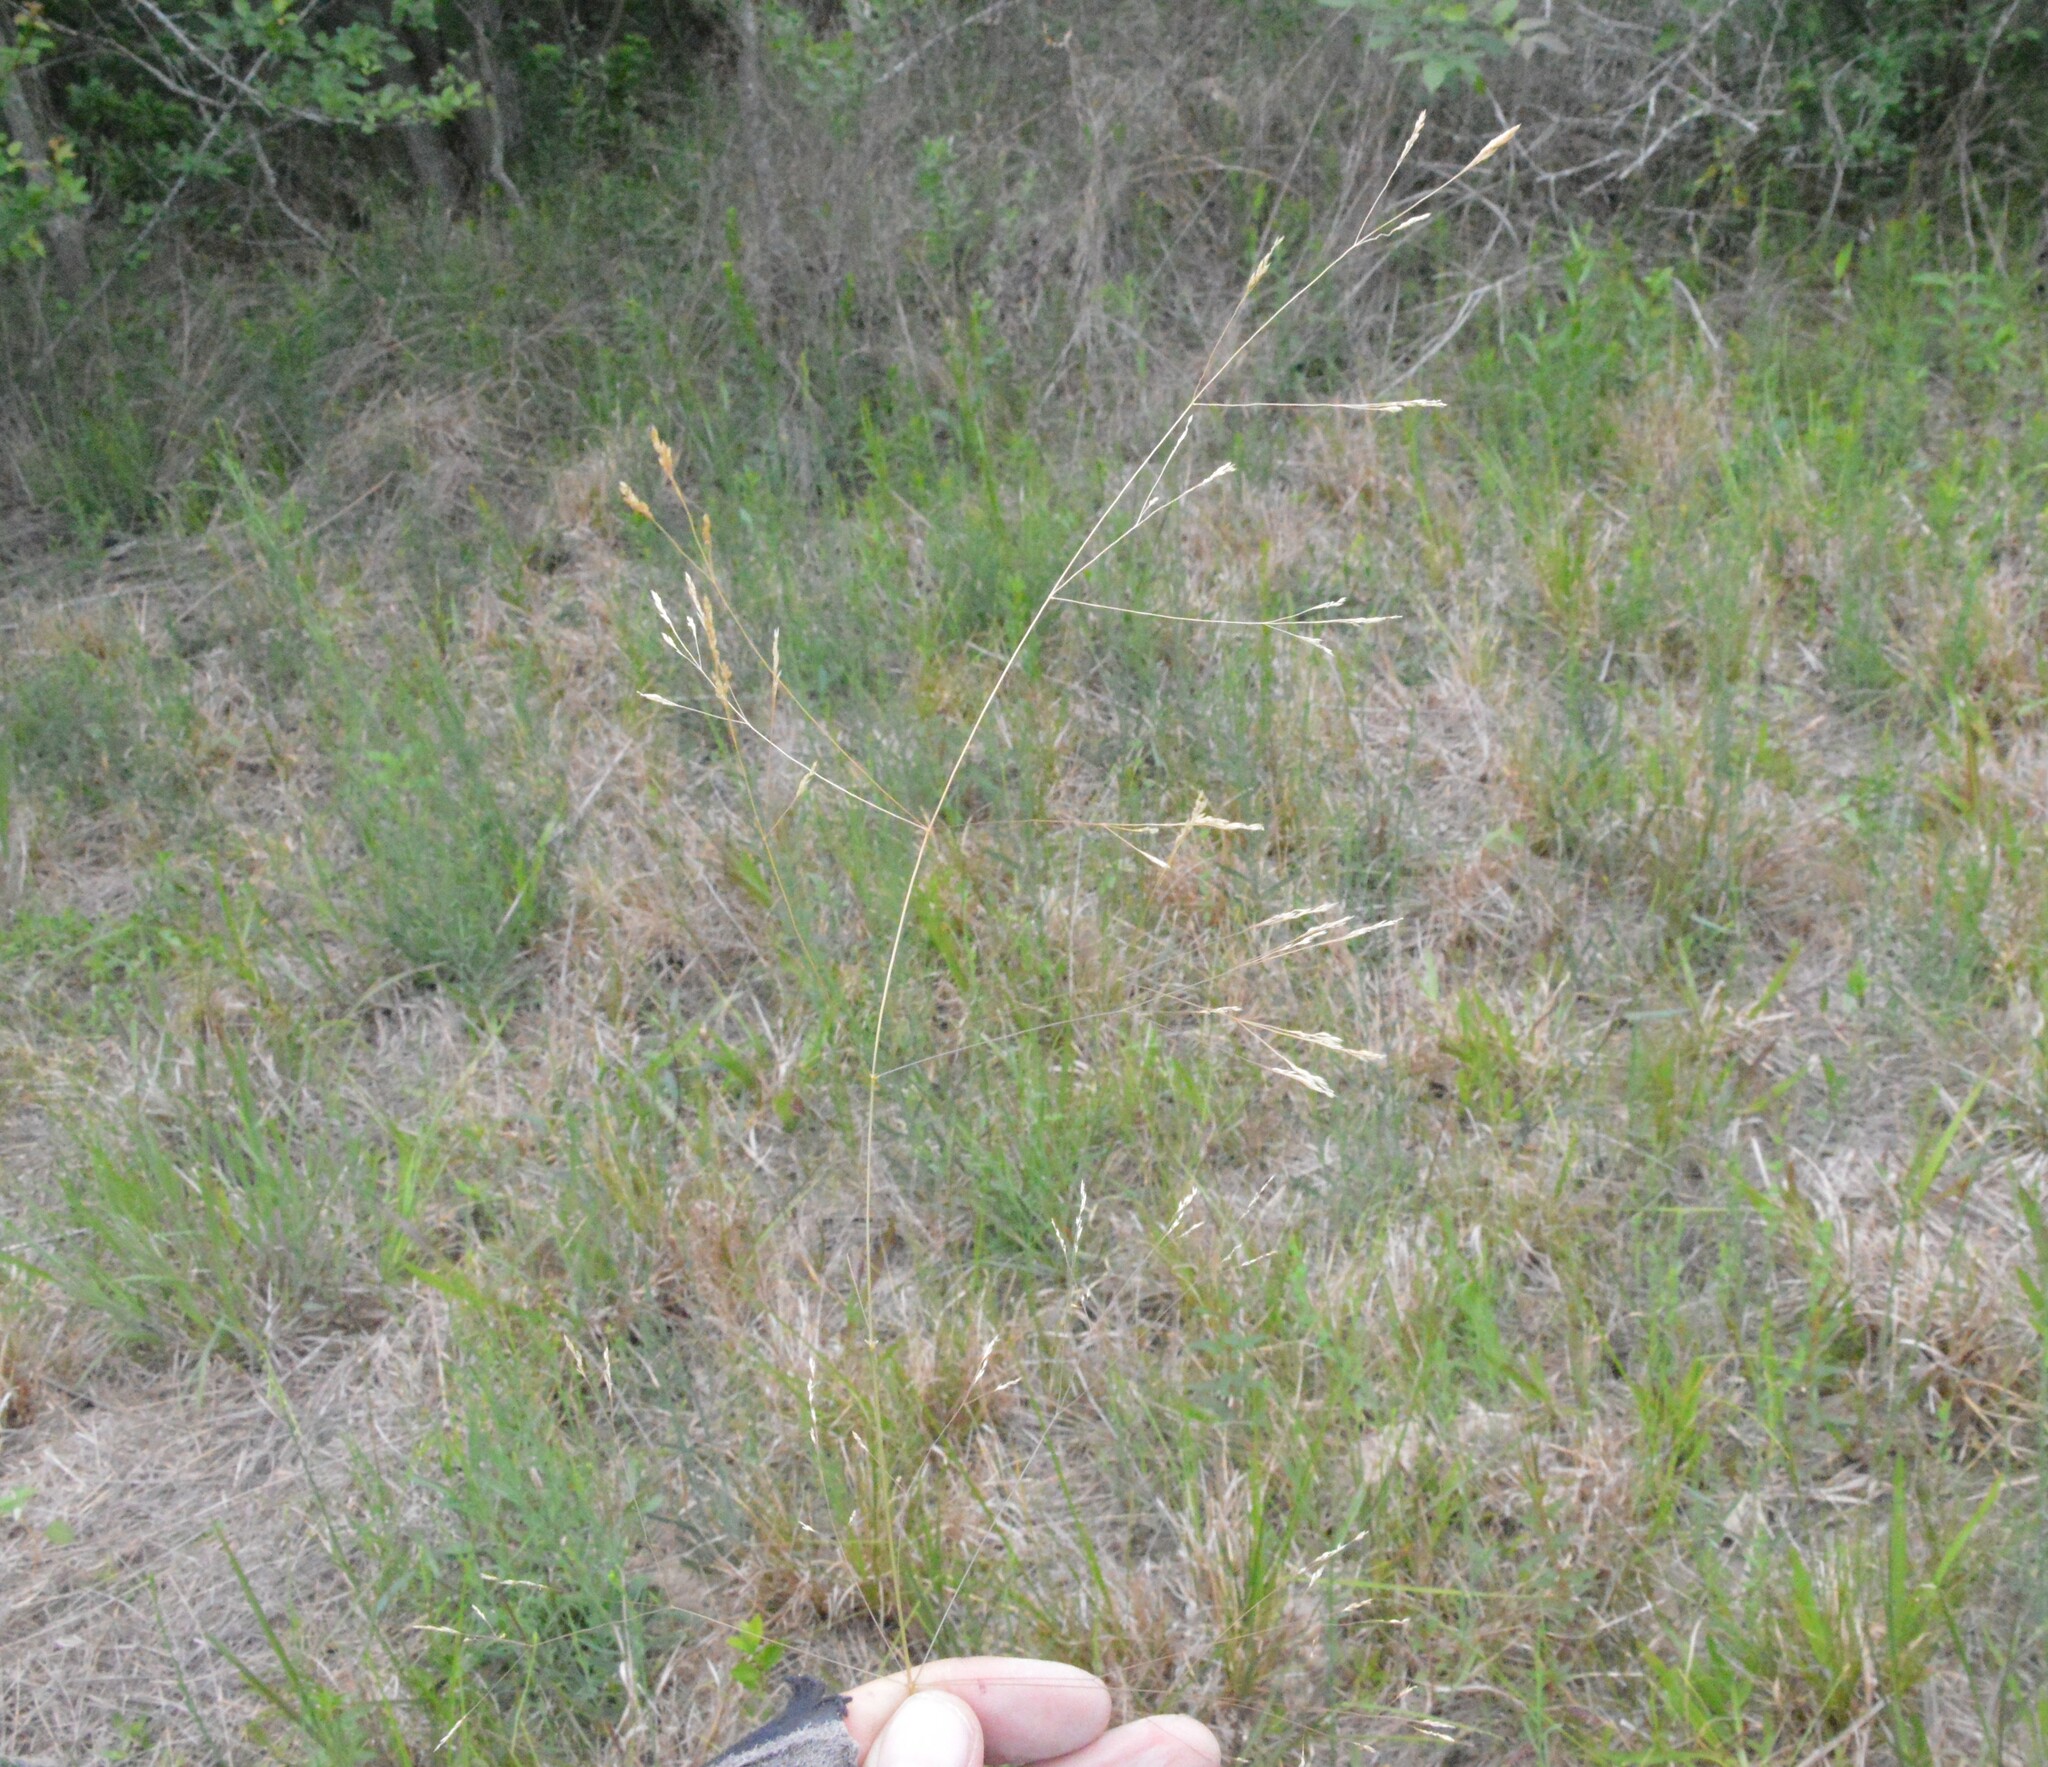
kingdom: Plantae
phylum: Tracheophyta
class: Liliopsida
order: Poales
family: Poaceae
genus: Agrostis
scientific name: Agrostis hyemalis
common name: Small bent
